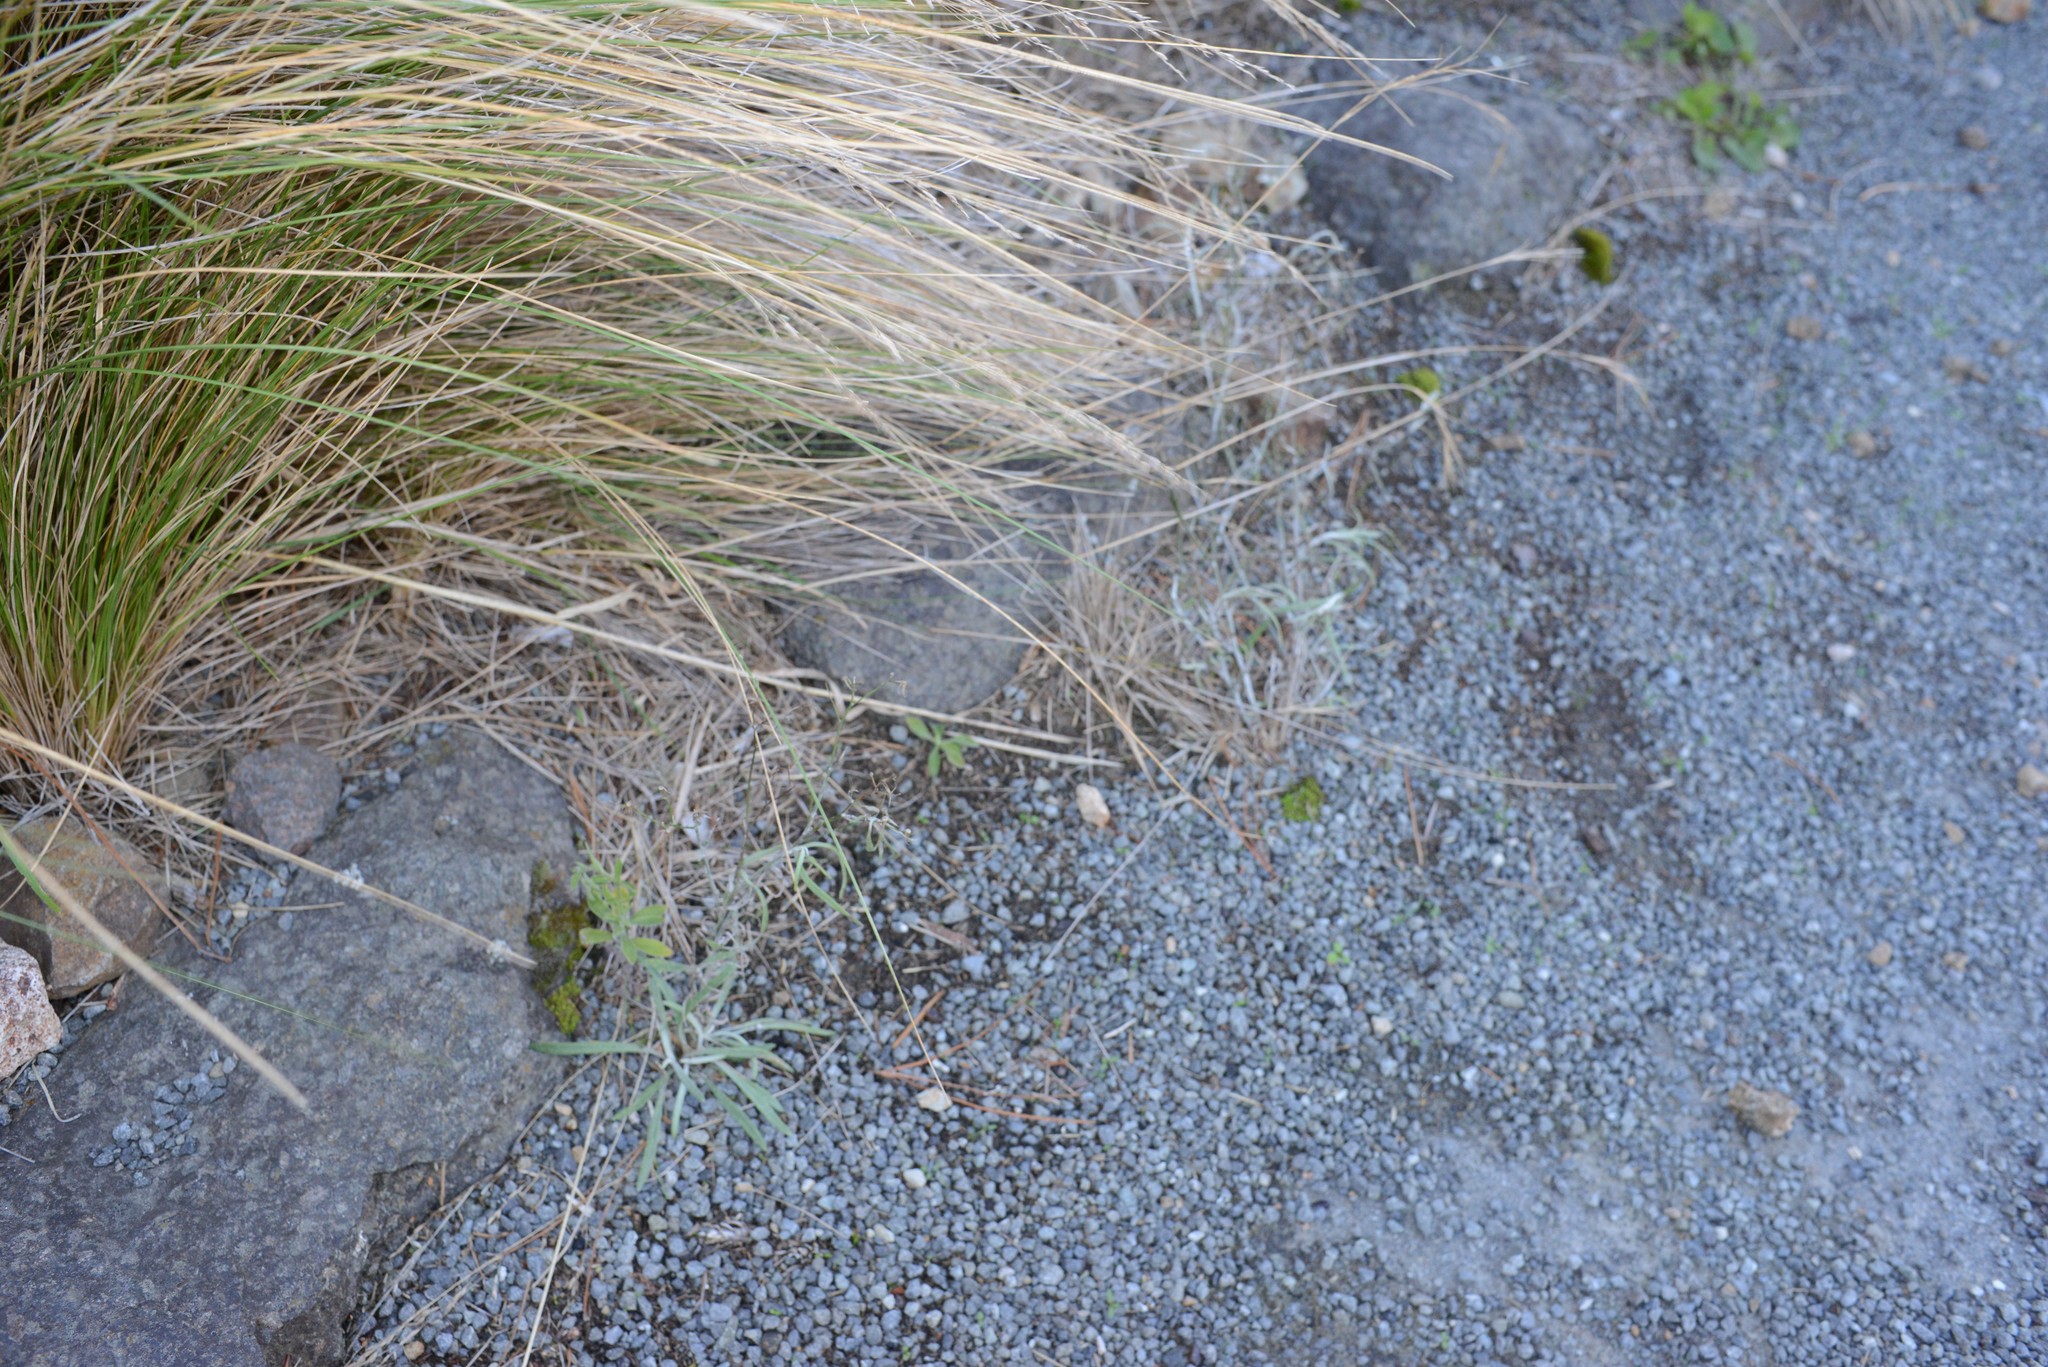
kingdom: Plantae
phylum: Tracheophyta
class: Magnoliopsida
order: Asterales
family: Asteraceae
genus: Senecio
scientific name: Senecio quadridentatus
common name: Cotton fireweed
